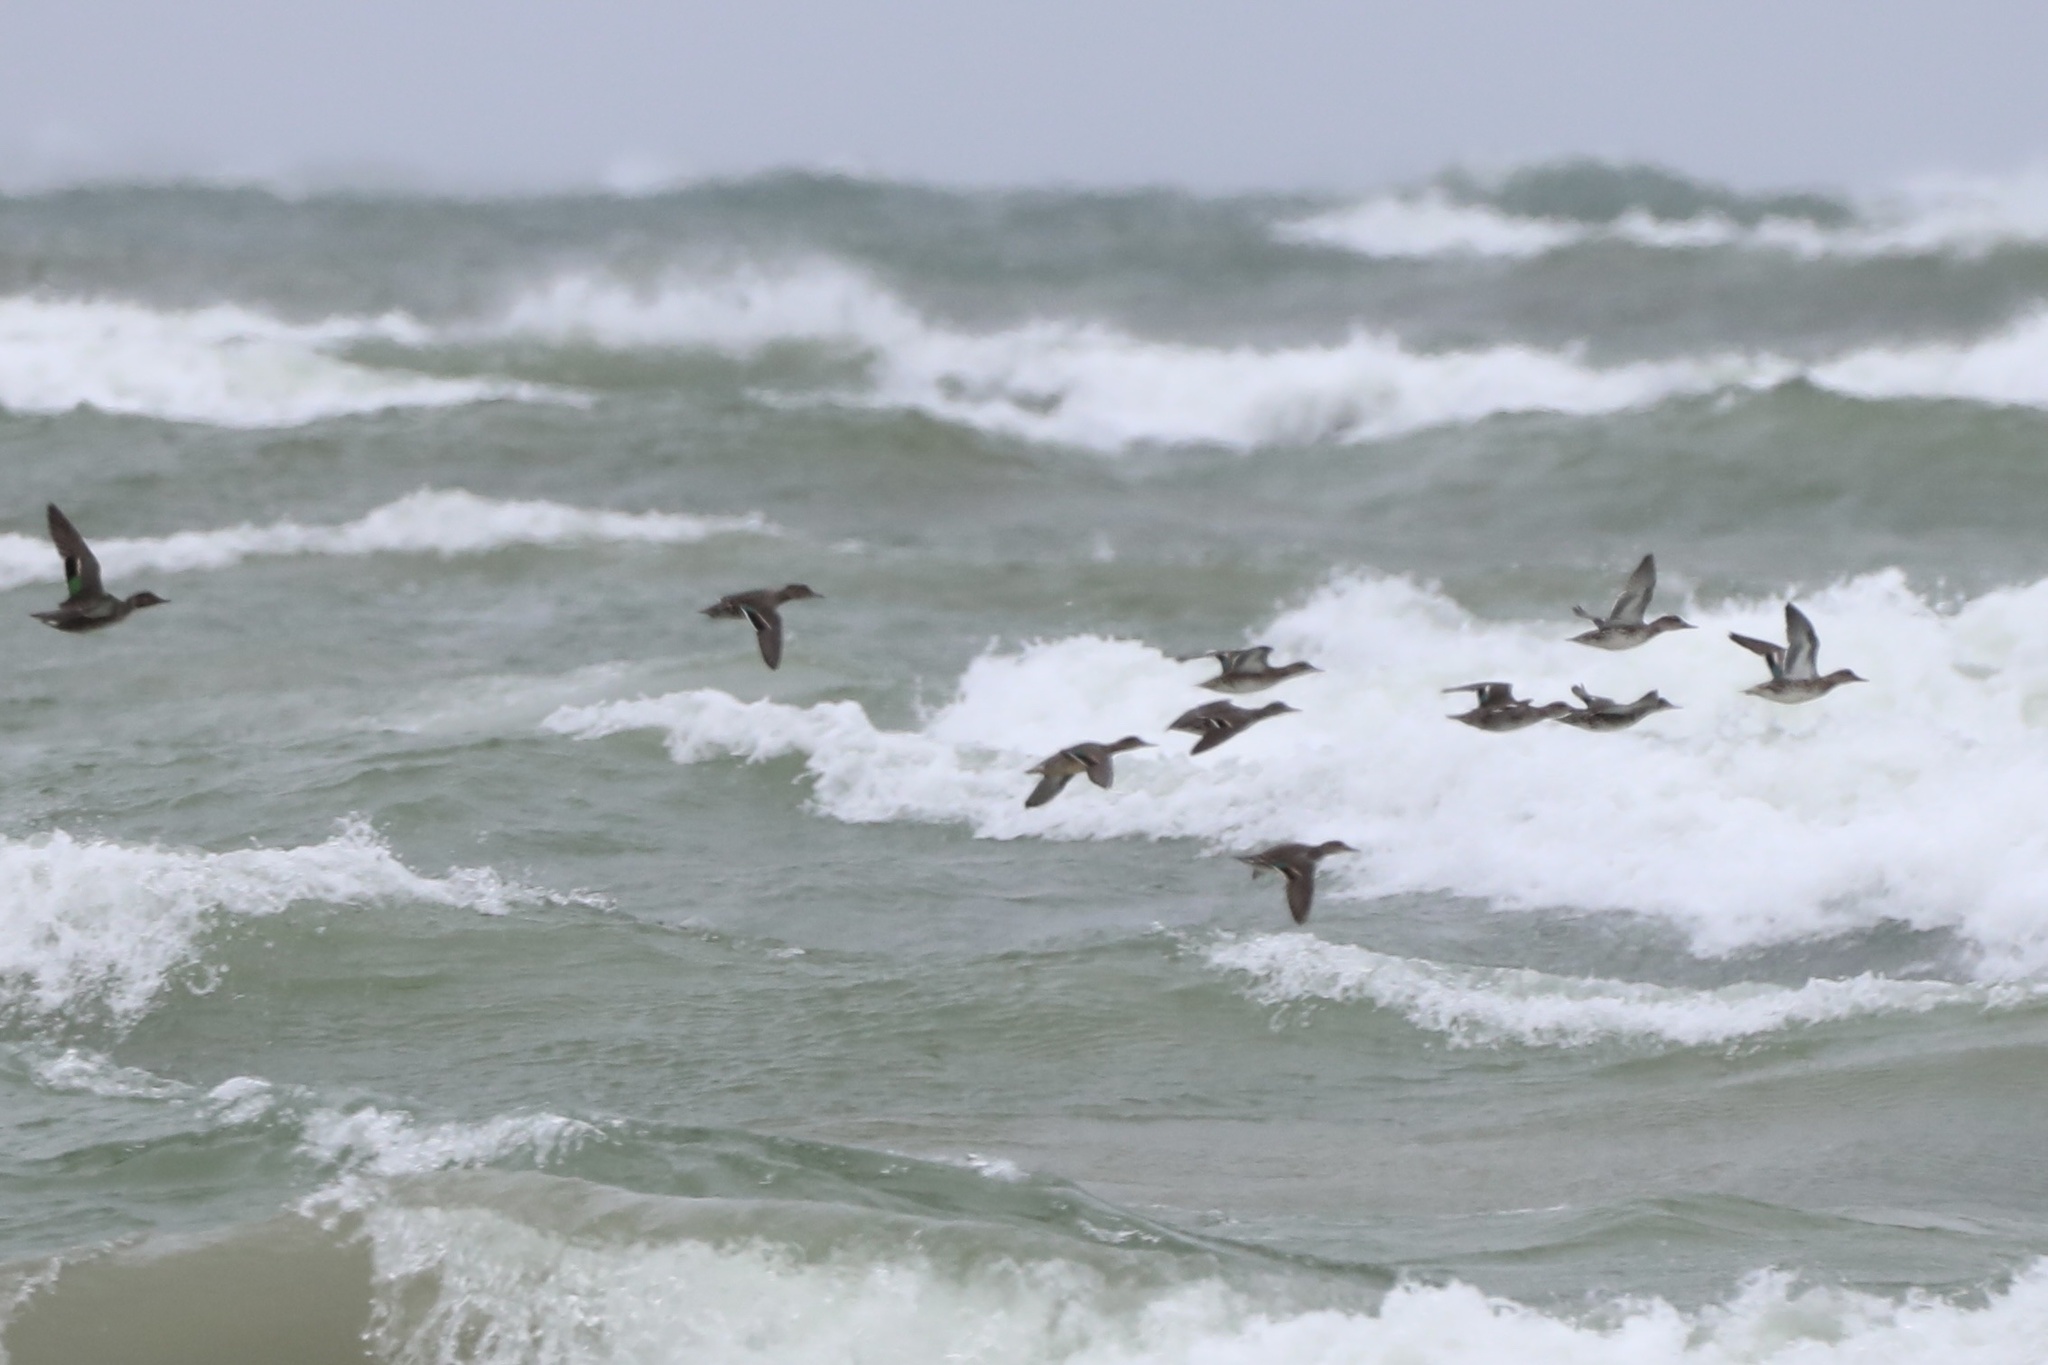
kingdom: Animalia
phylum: Chordata
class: Aves
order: Anseriformes
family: Anatidae
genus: Anas
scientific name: Anas crecca
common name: Eurasian teal
